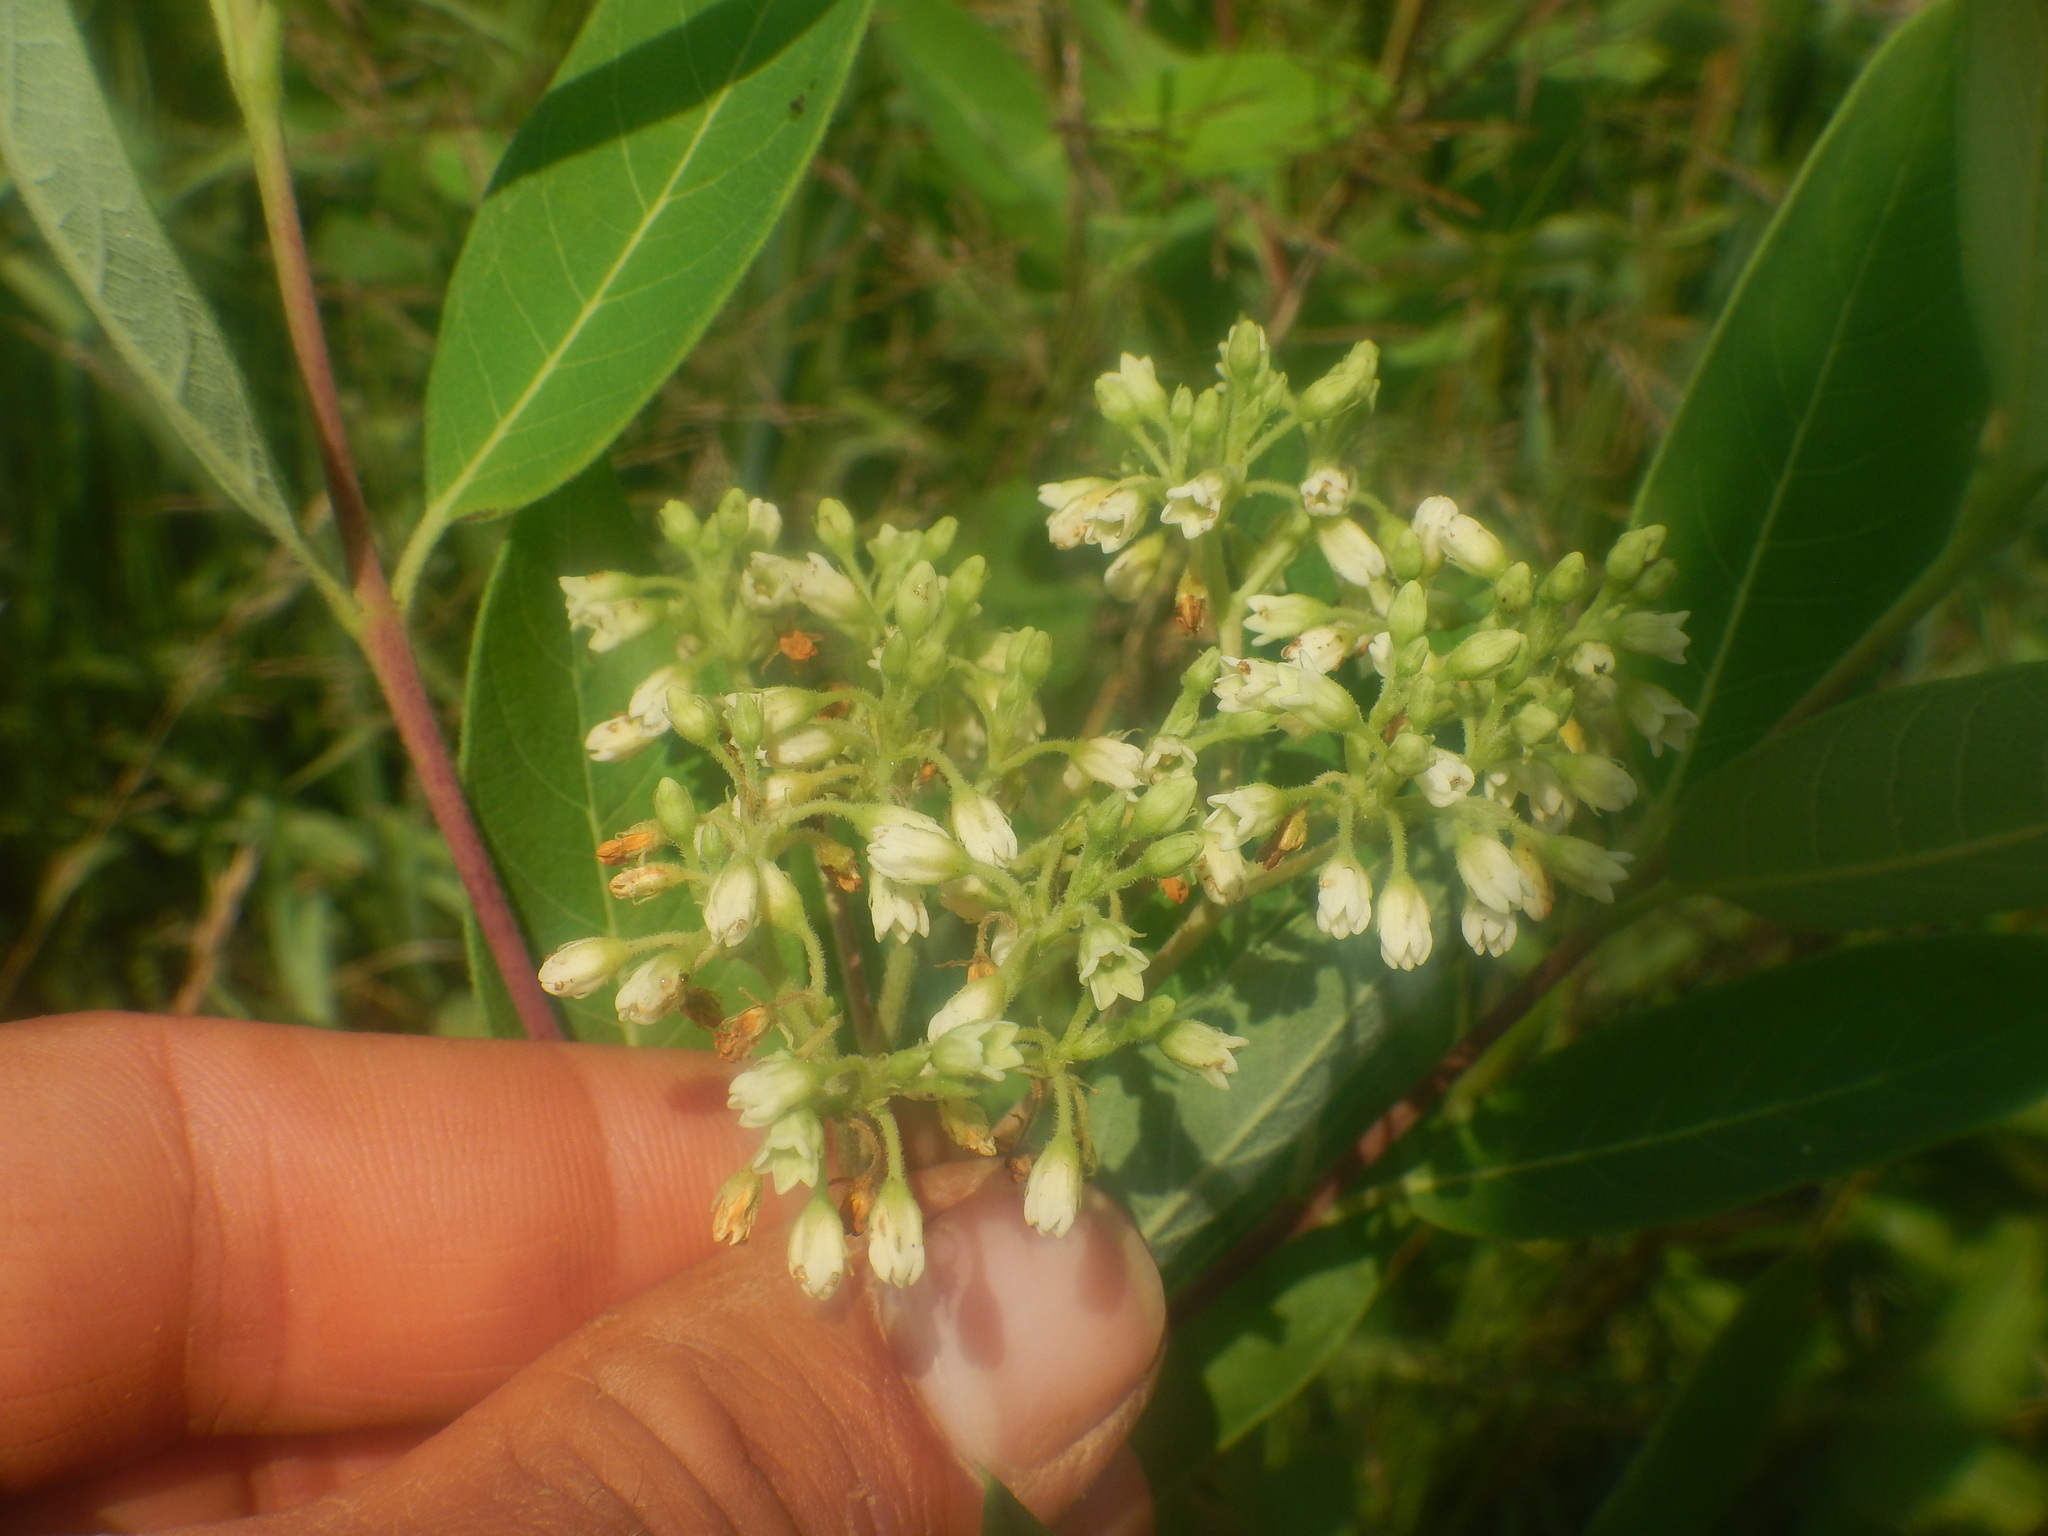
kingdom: Plantae
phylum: Tracheophyta
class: Magnoliopsida
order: Gentianales
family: Apocynaceae
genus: Apocynum
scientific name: Apocynum cannabinum
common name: Hemp dogbane
